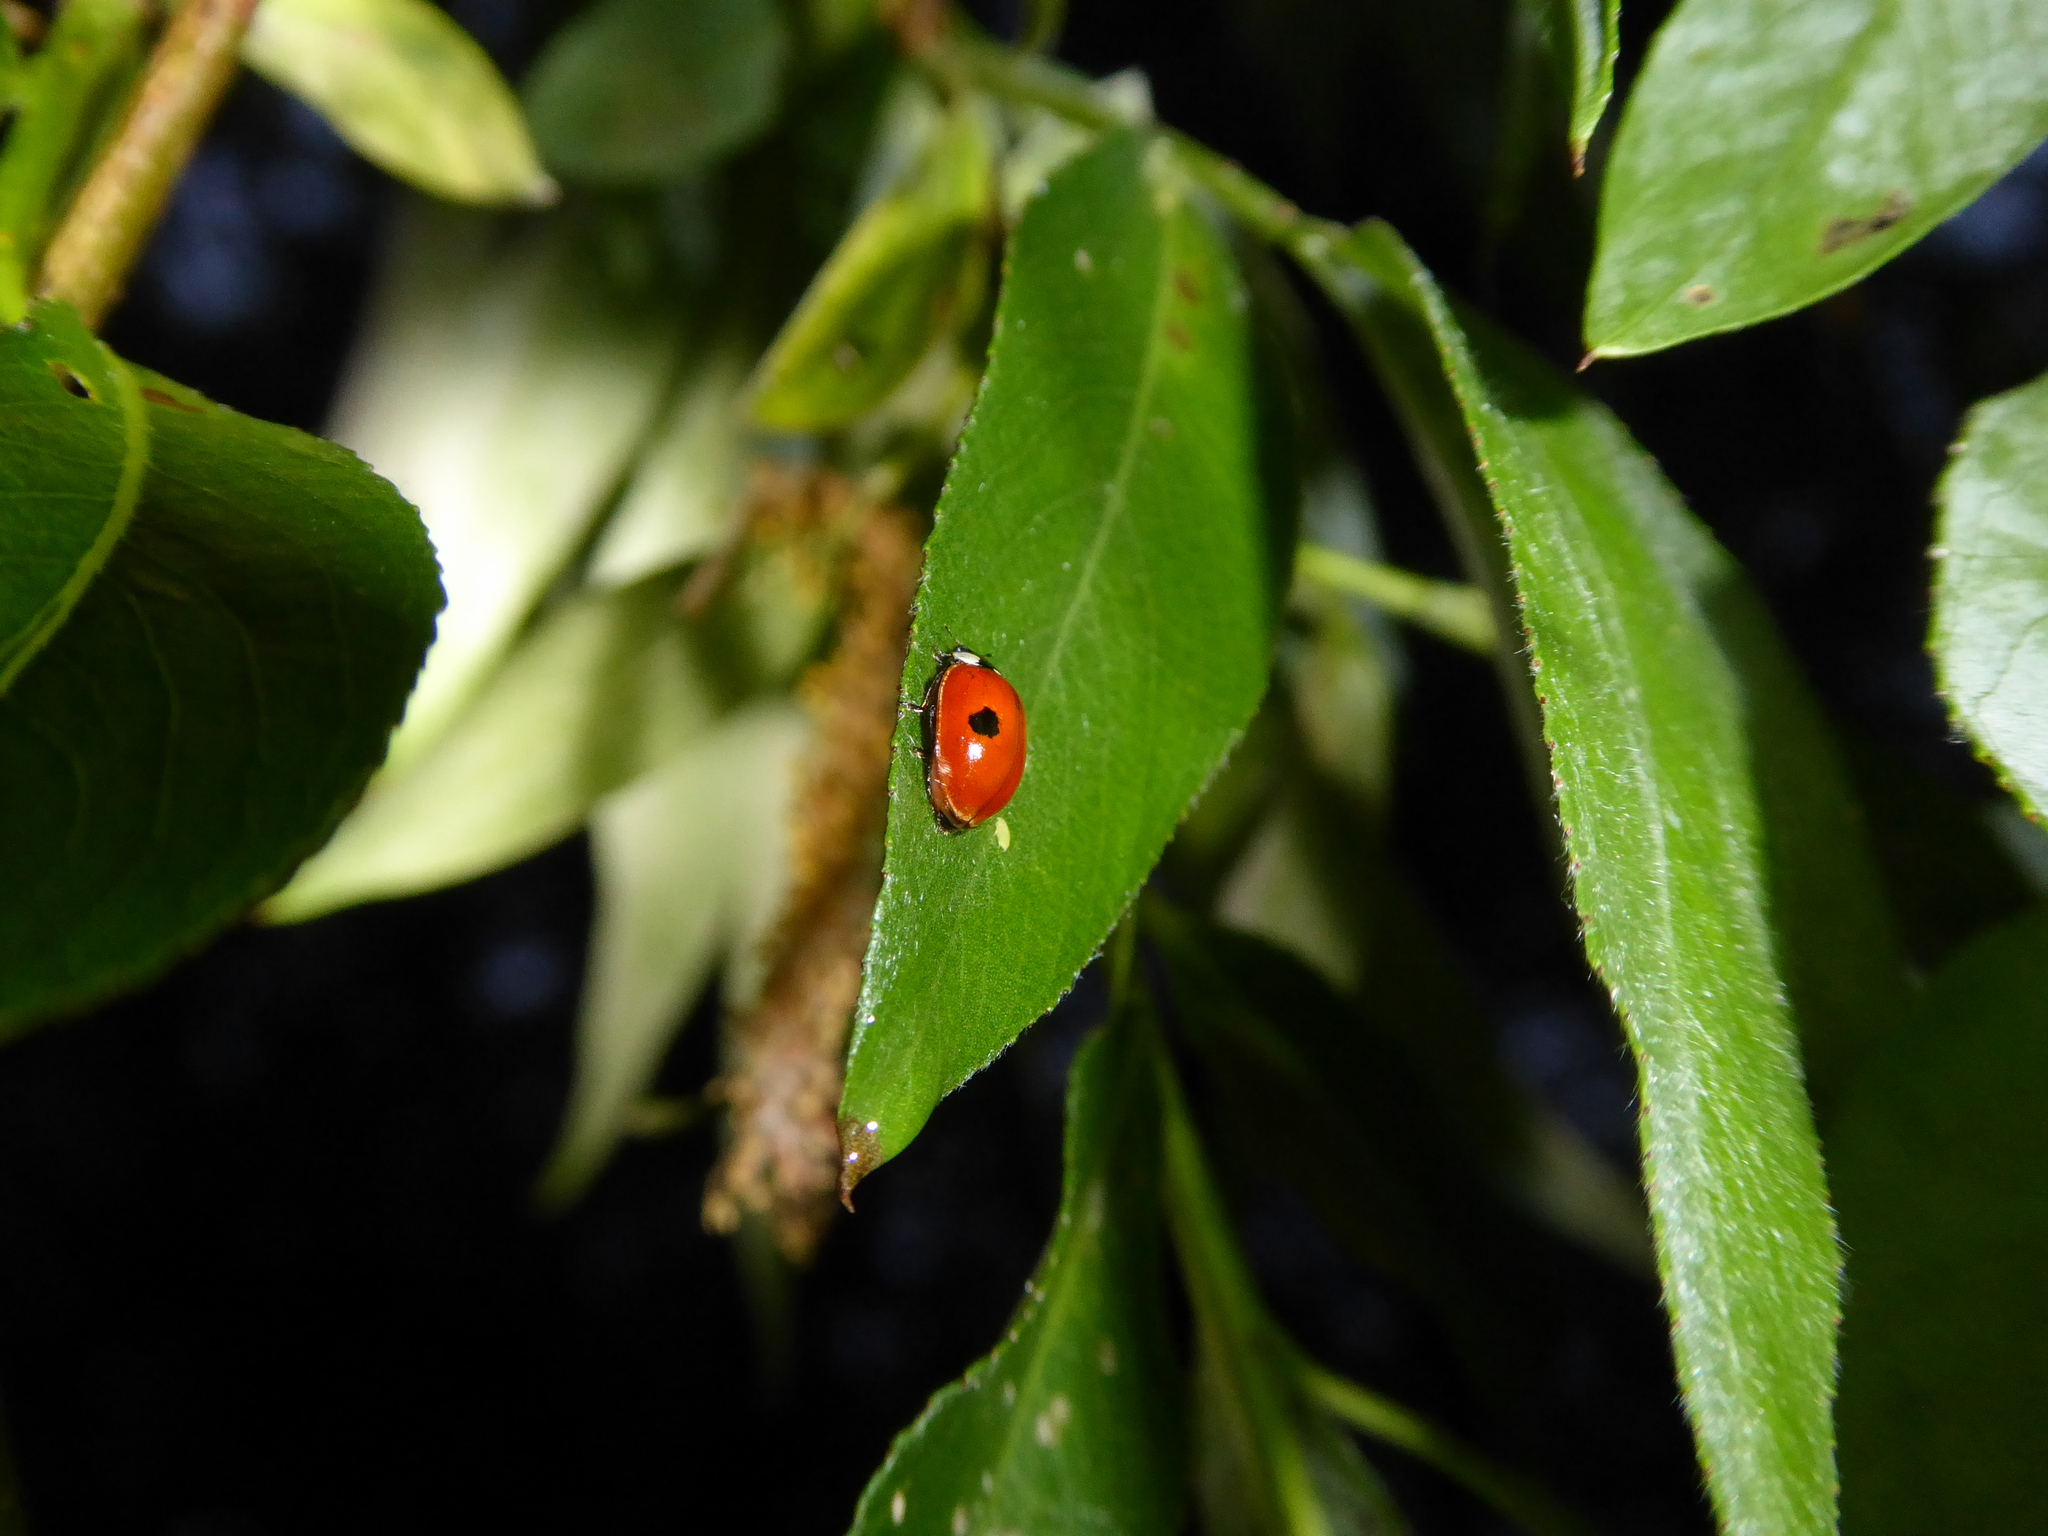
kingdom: Animalia
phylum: Arthropoda
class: Insecta
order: Coleoptera
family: Coccinellidae
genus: Adalia
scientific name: Adalia bipunctata
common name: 2-spot ladybird
